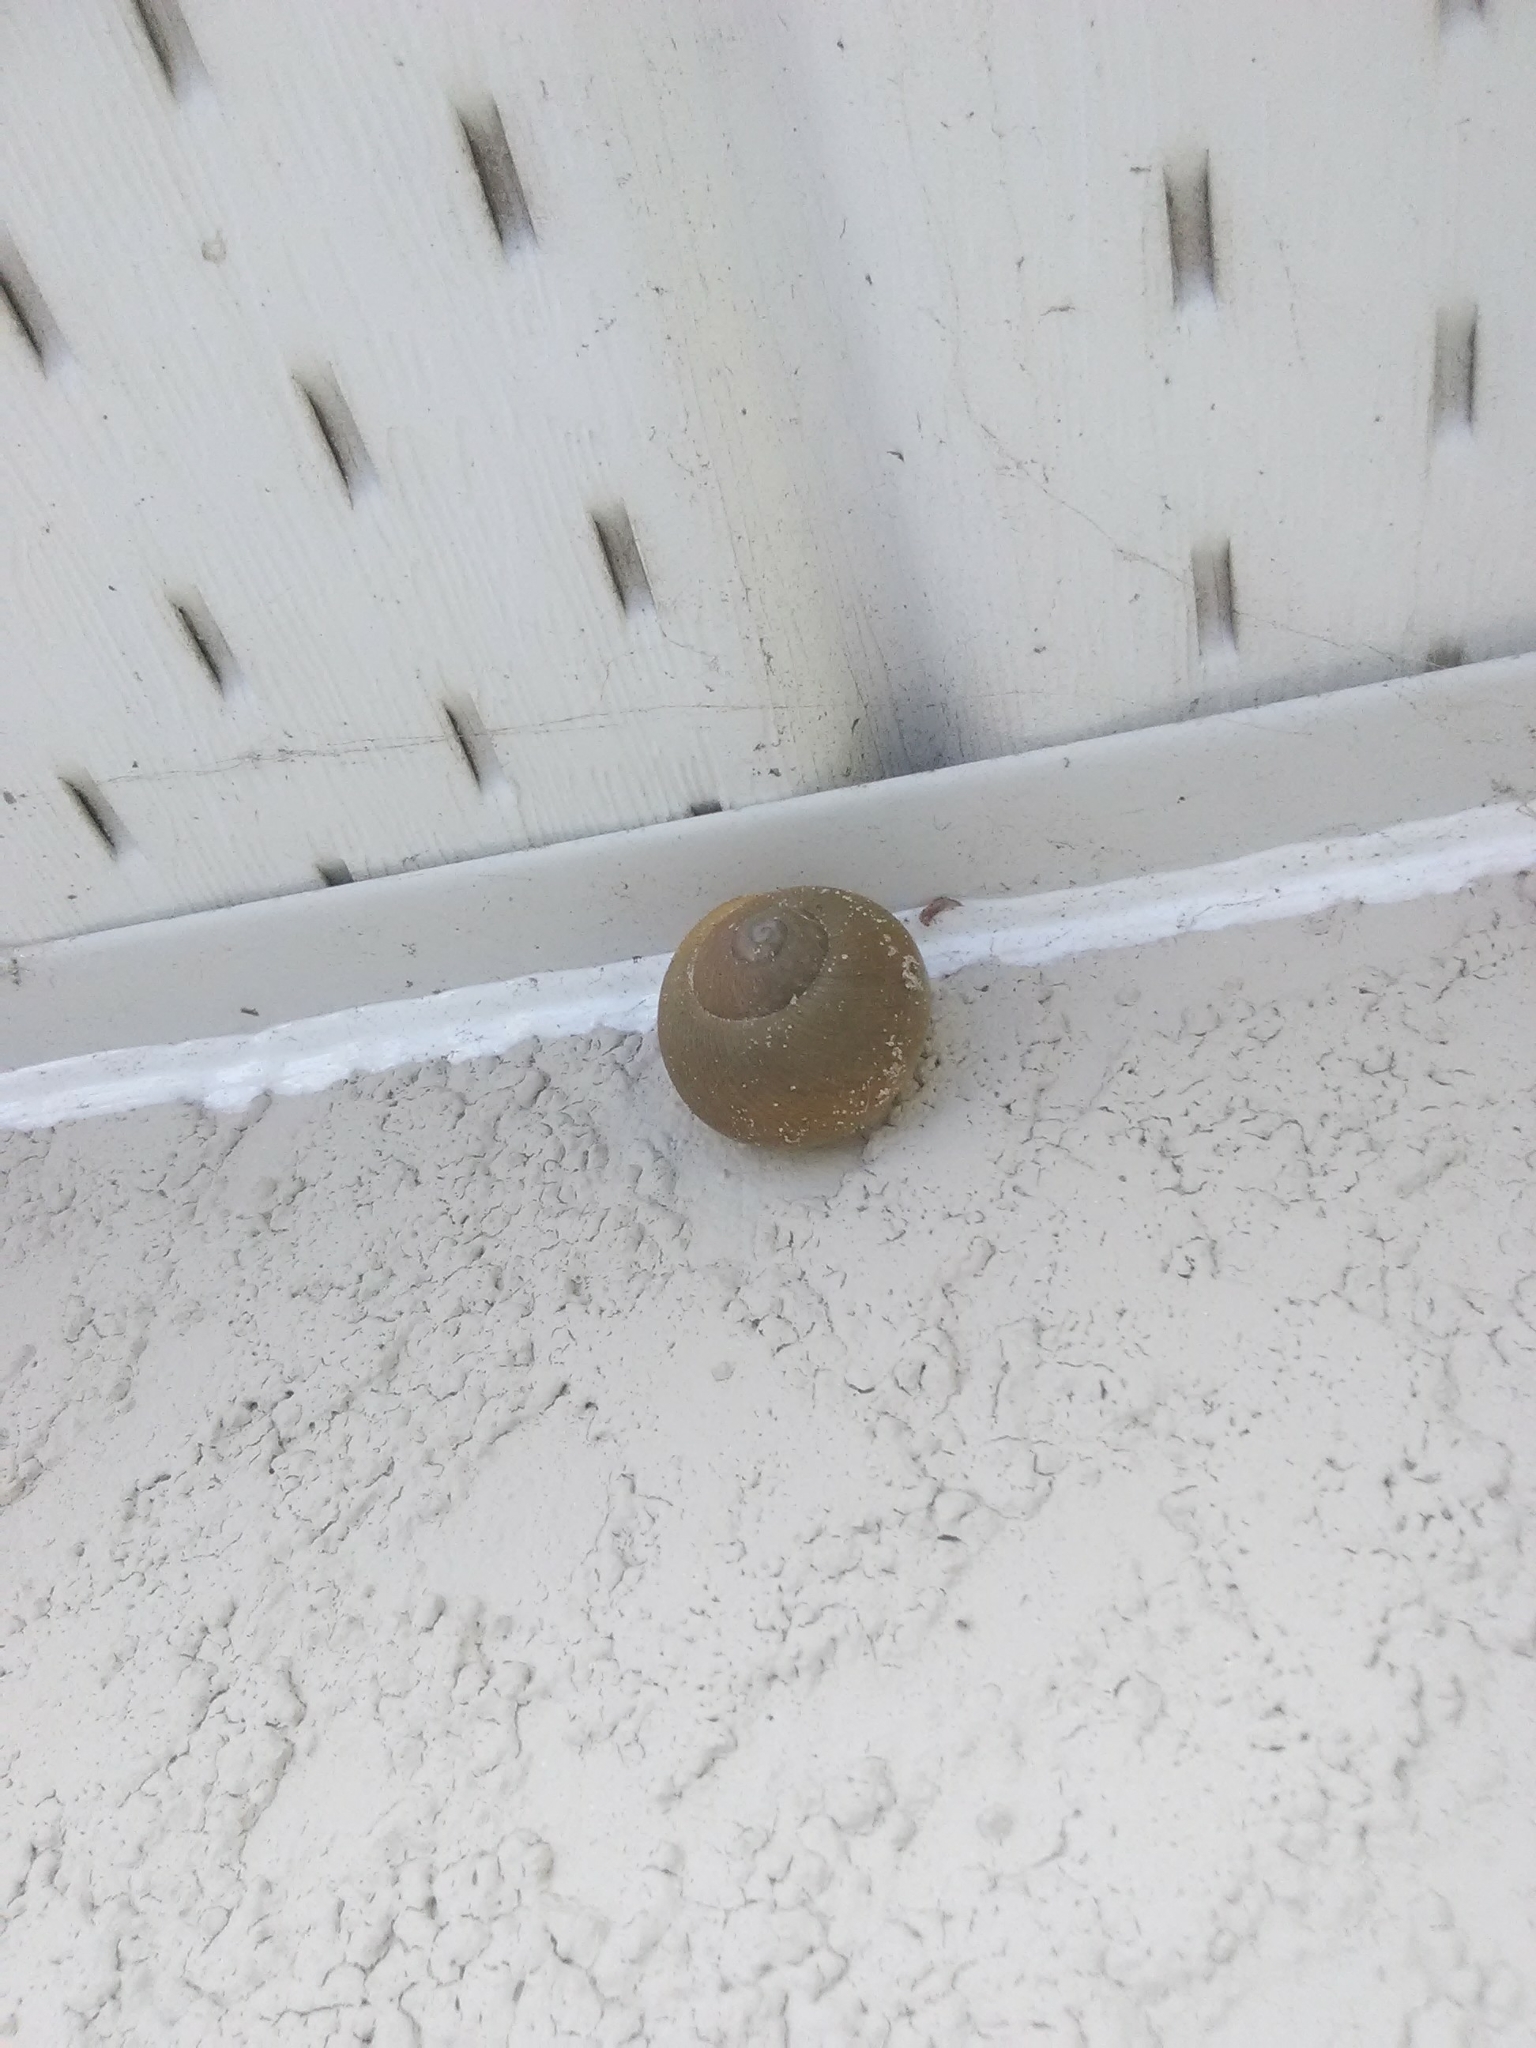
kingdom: Animalia
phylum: Mollusca
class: Gastropoda
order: Stylommatophora
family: Zachrysiidae
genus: Zachrysia
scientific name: Zachrysia provisoria
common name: Garden zachrysia
